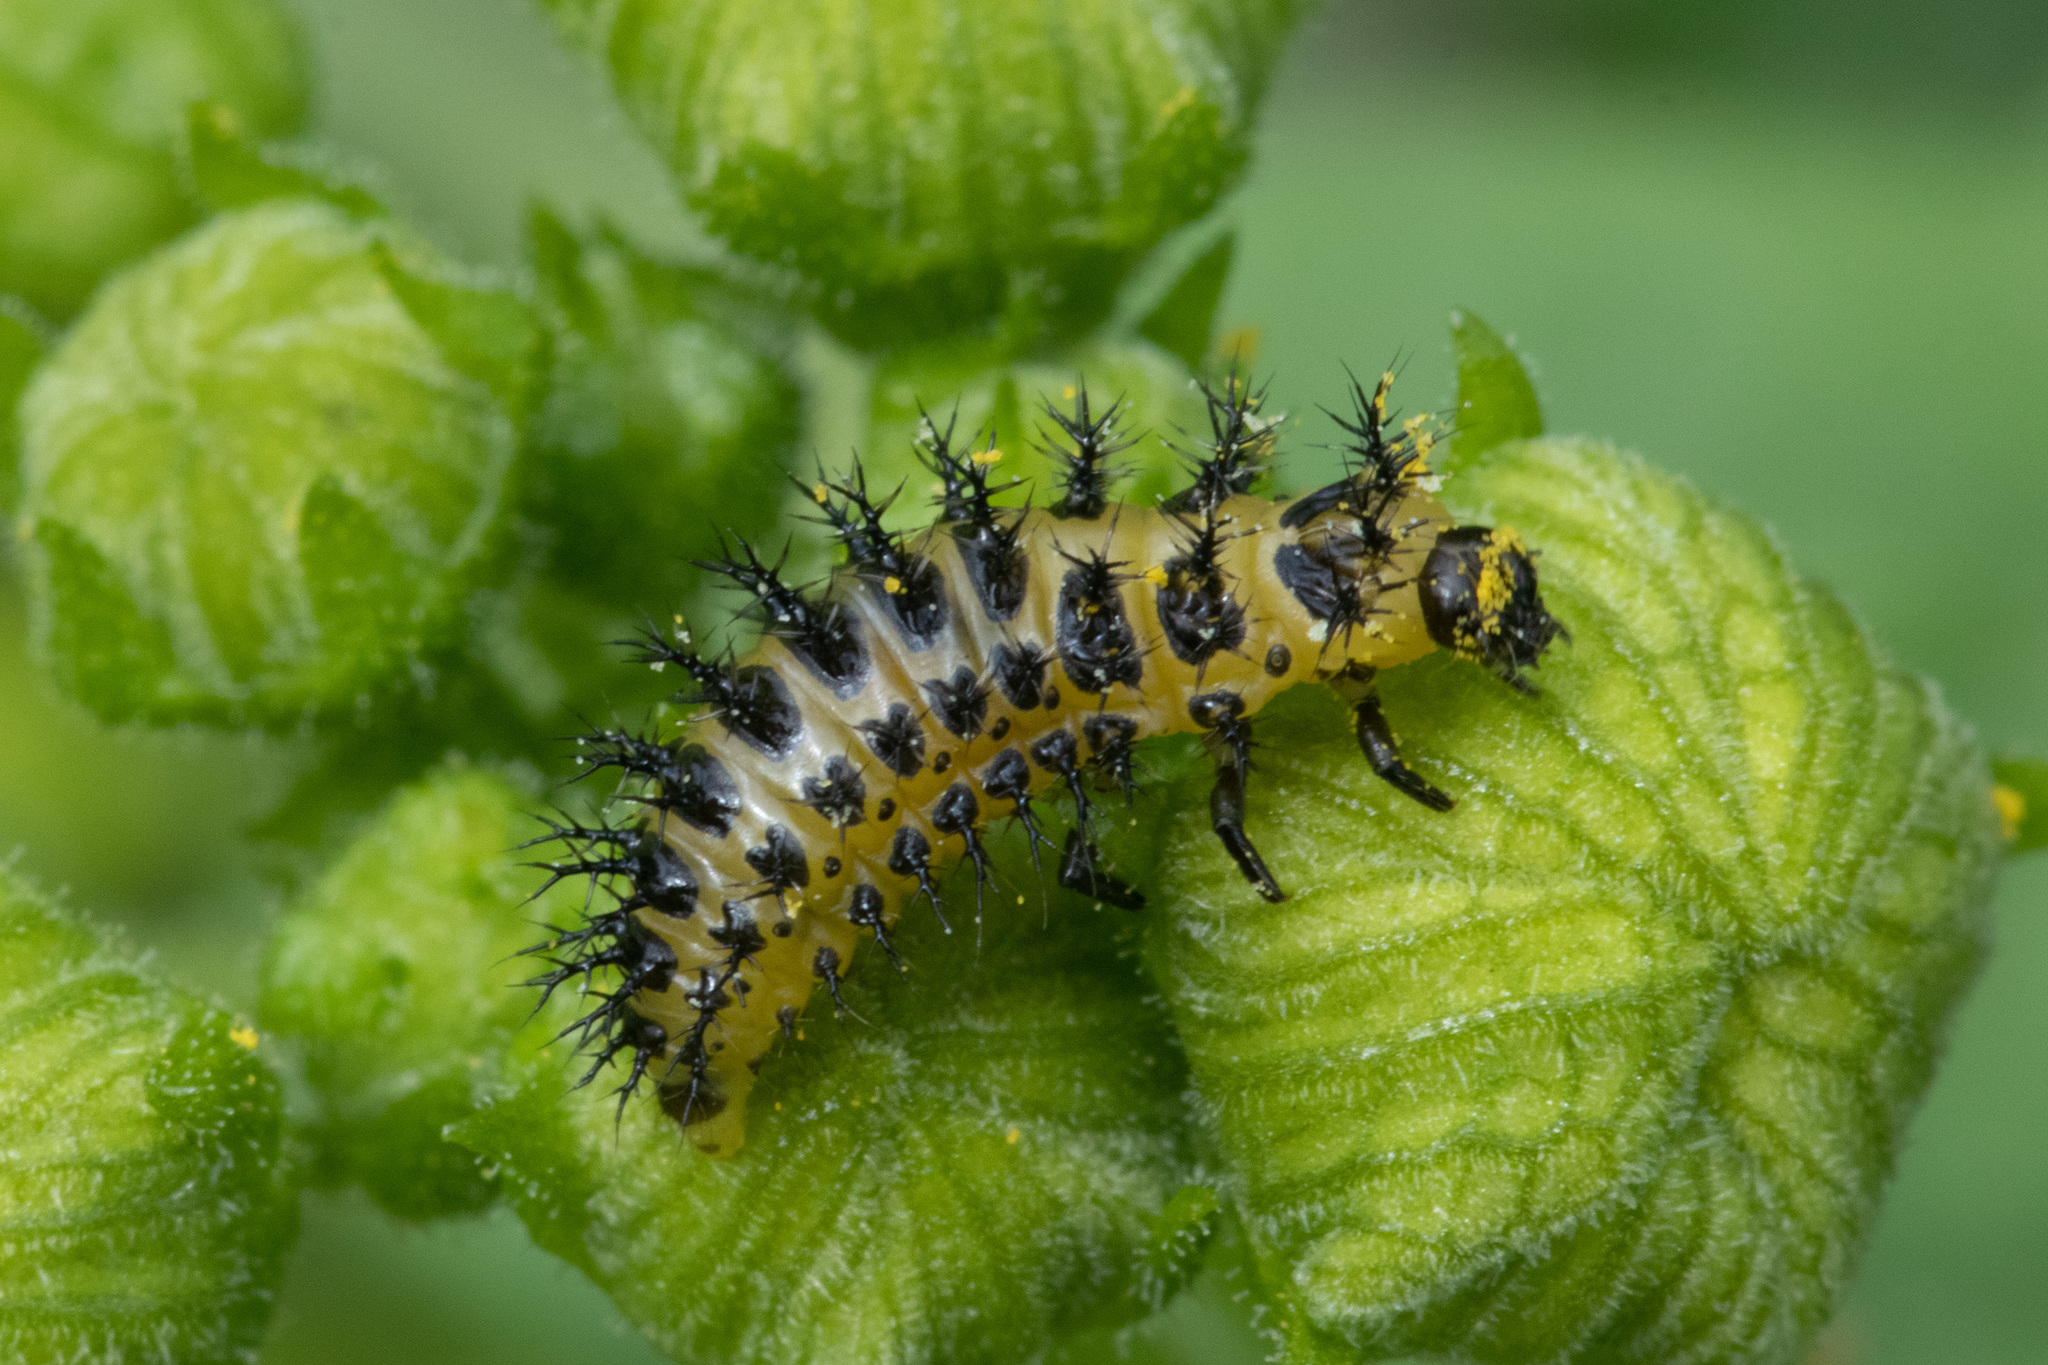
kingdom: Animalia
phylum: Arthropoda
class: Insecta
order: Coleoptera
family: Coccinellidae
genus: Henosepilachna
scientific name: Henosepilachna argus
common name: Bryony ladybird
